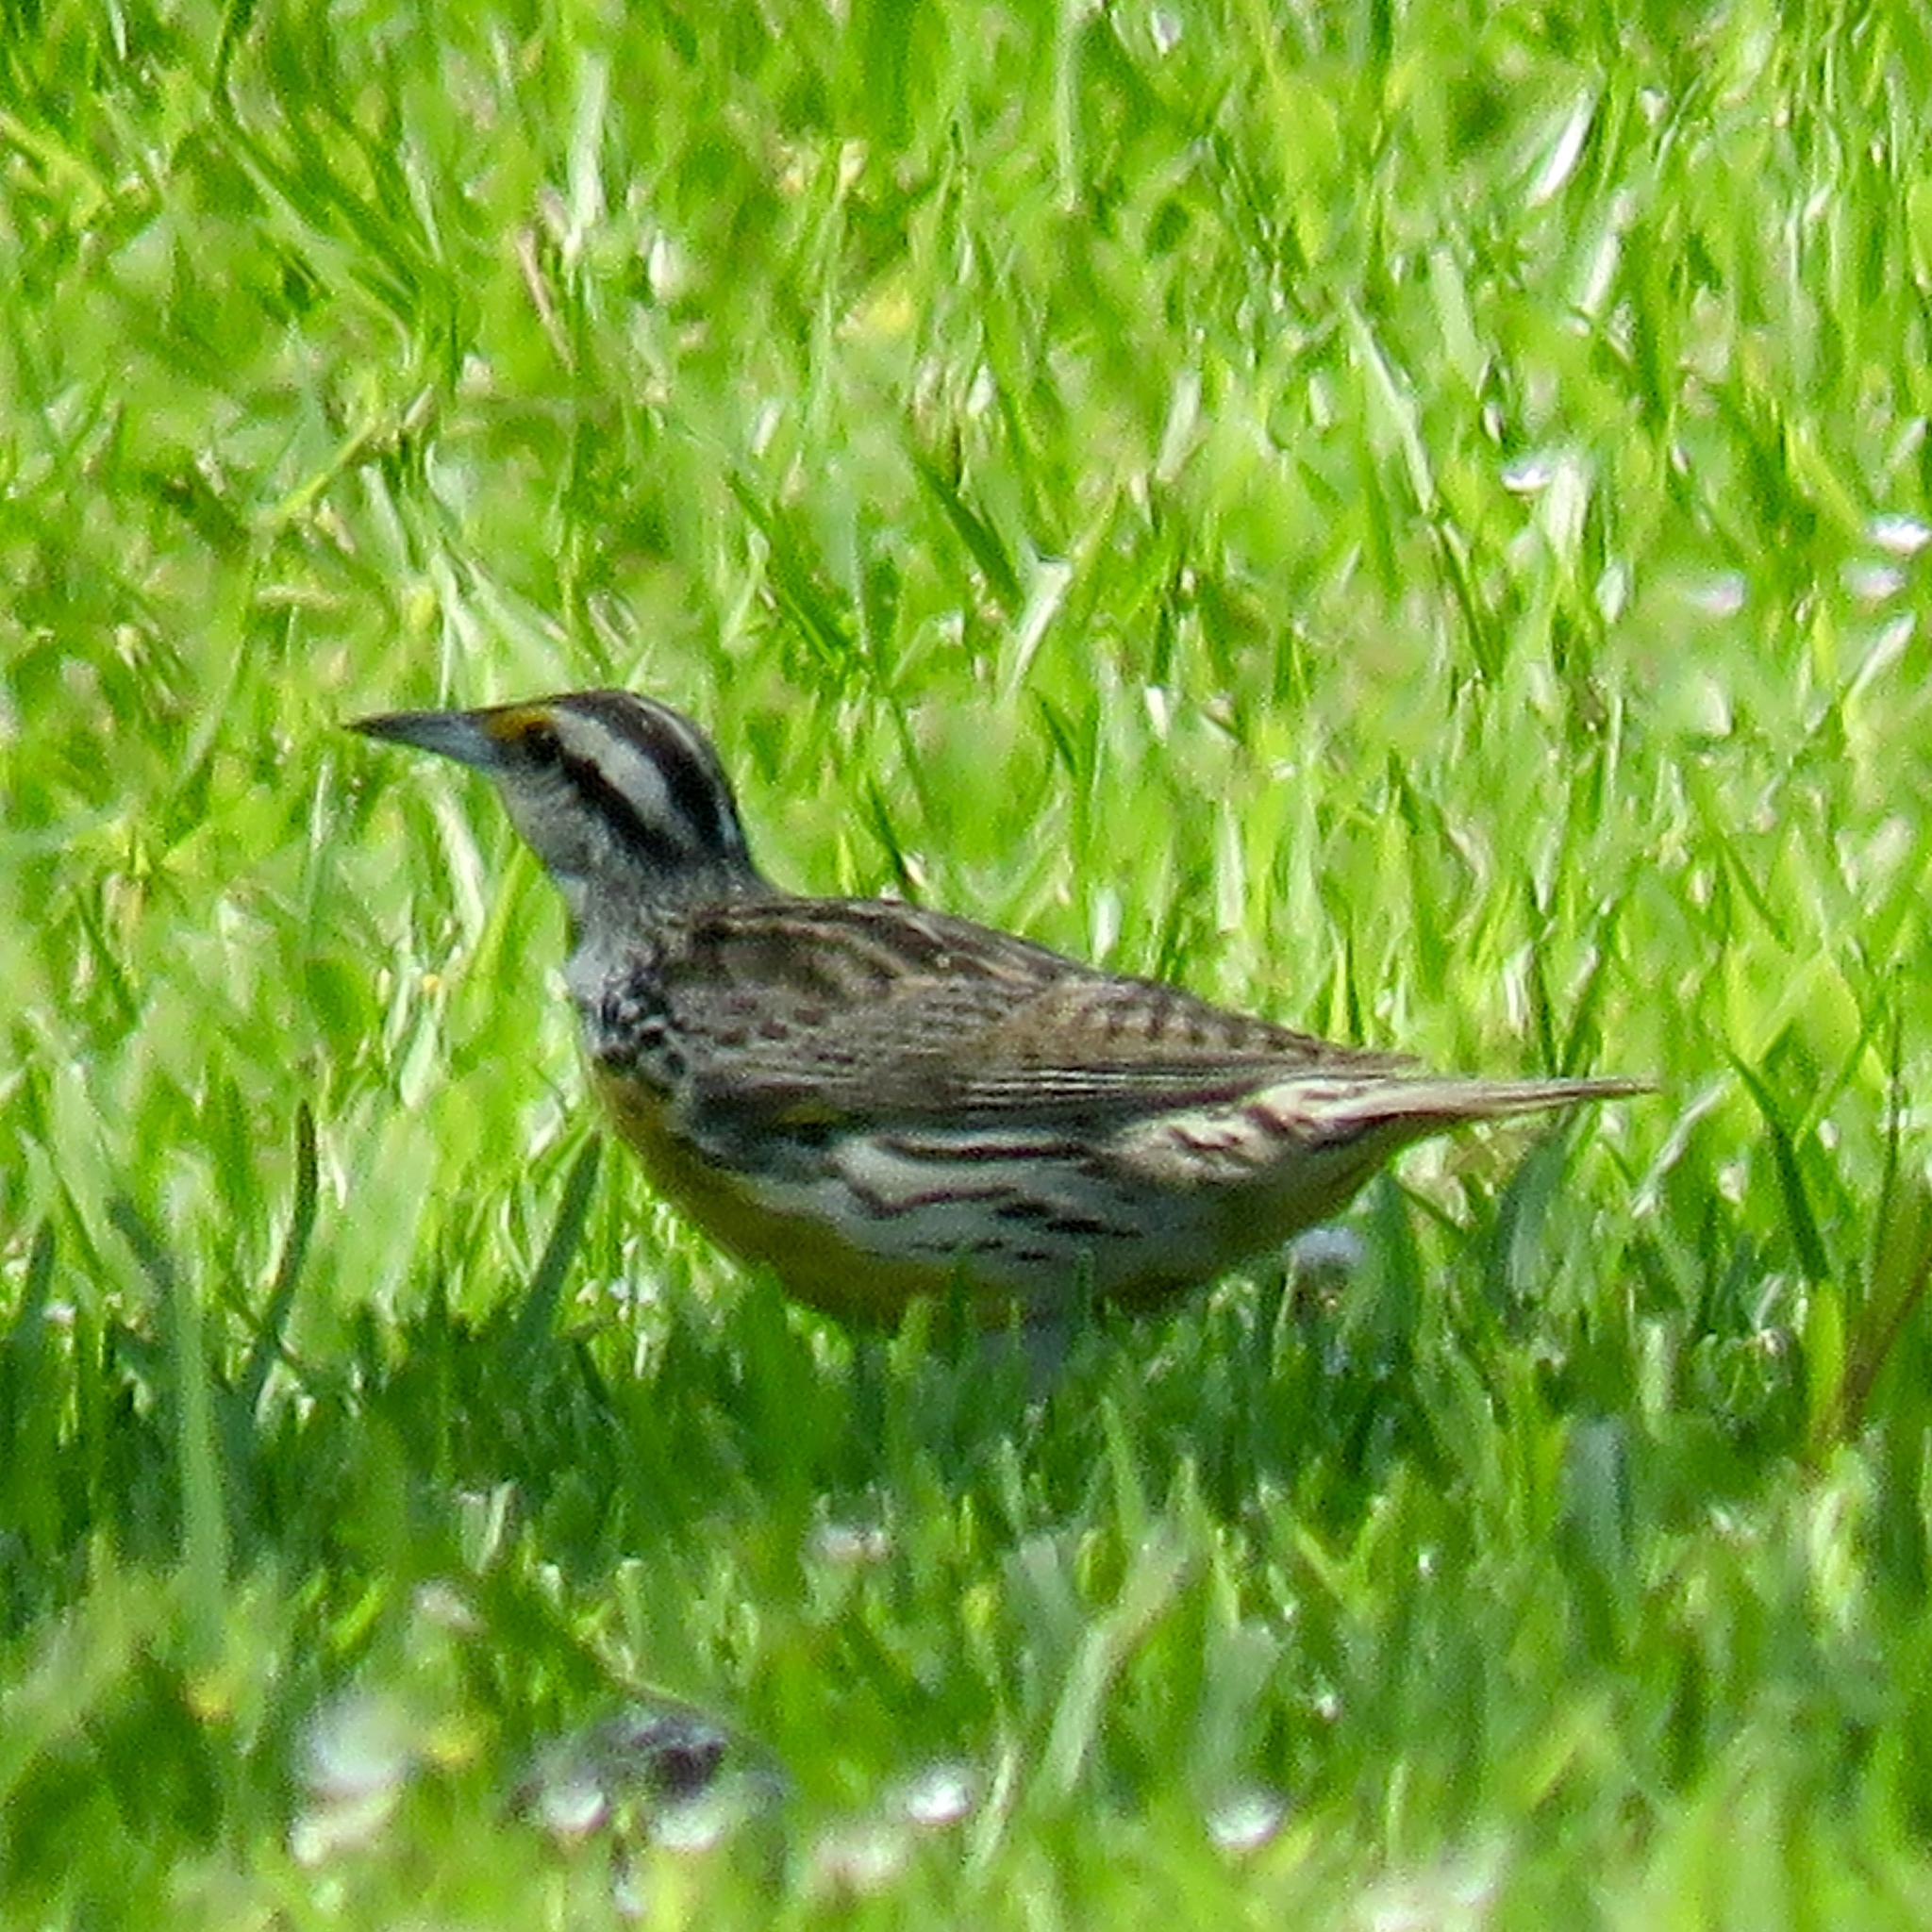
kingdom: Animalia
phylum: Chordata
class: Aves
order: Passeriformes
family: Icteridae
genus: Sturnella
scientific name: Sturnella magna
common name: Eastern meadowlark
